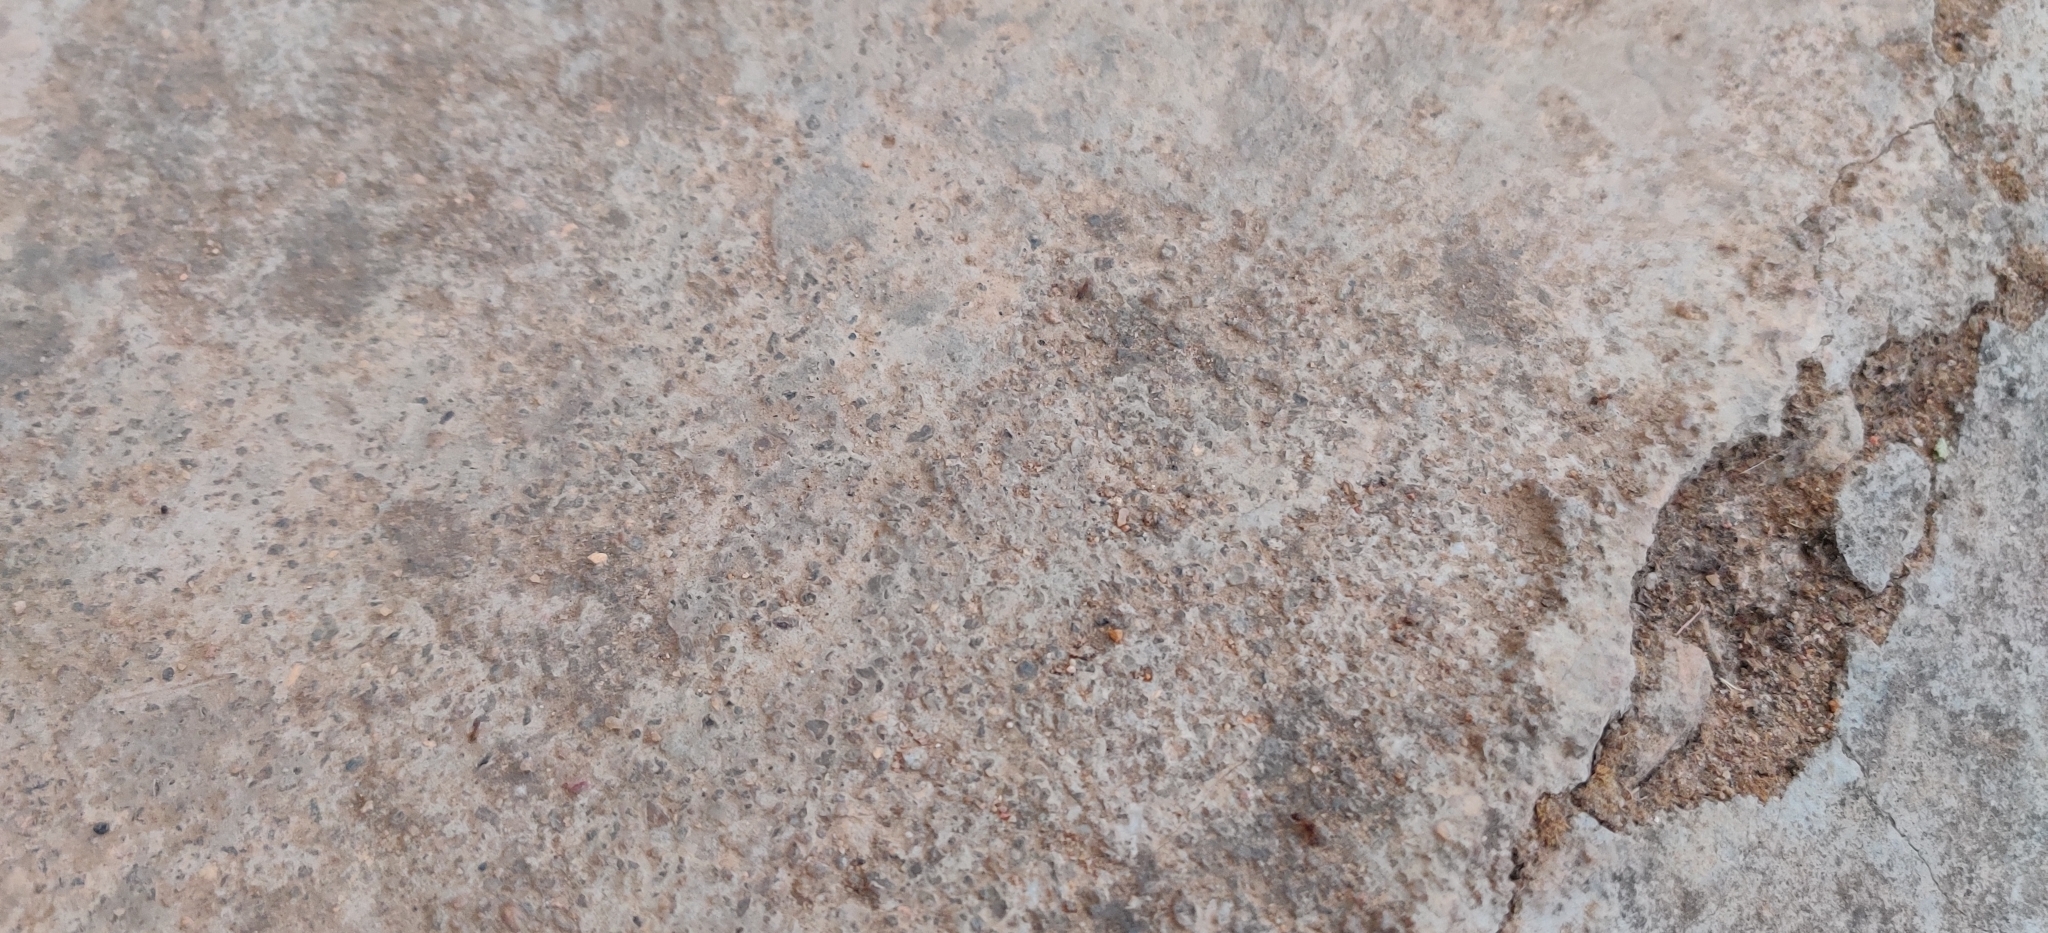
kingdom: Animalia
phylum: Arthropoda
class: Insecta
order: Hymenoptera
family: Formicidae
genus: Camponotus
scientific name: Camponotus darwinii
